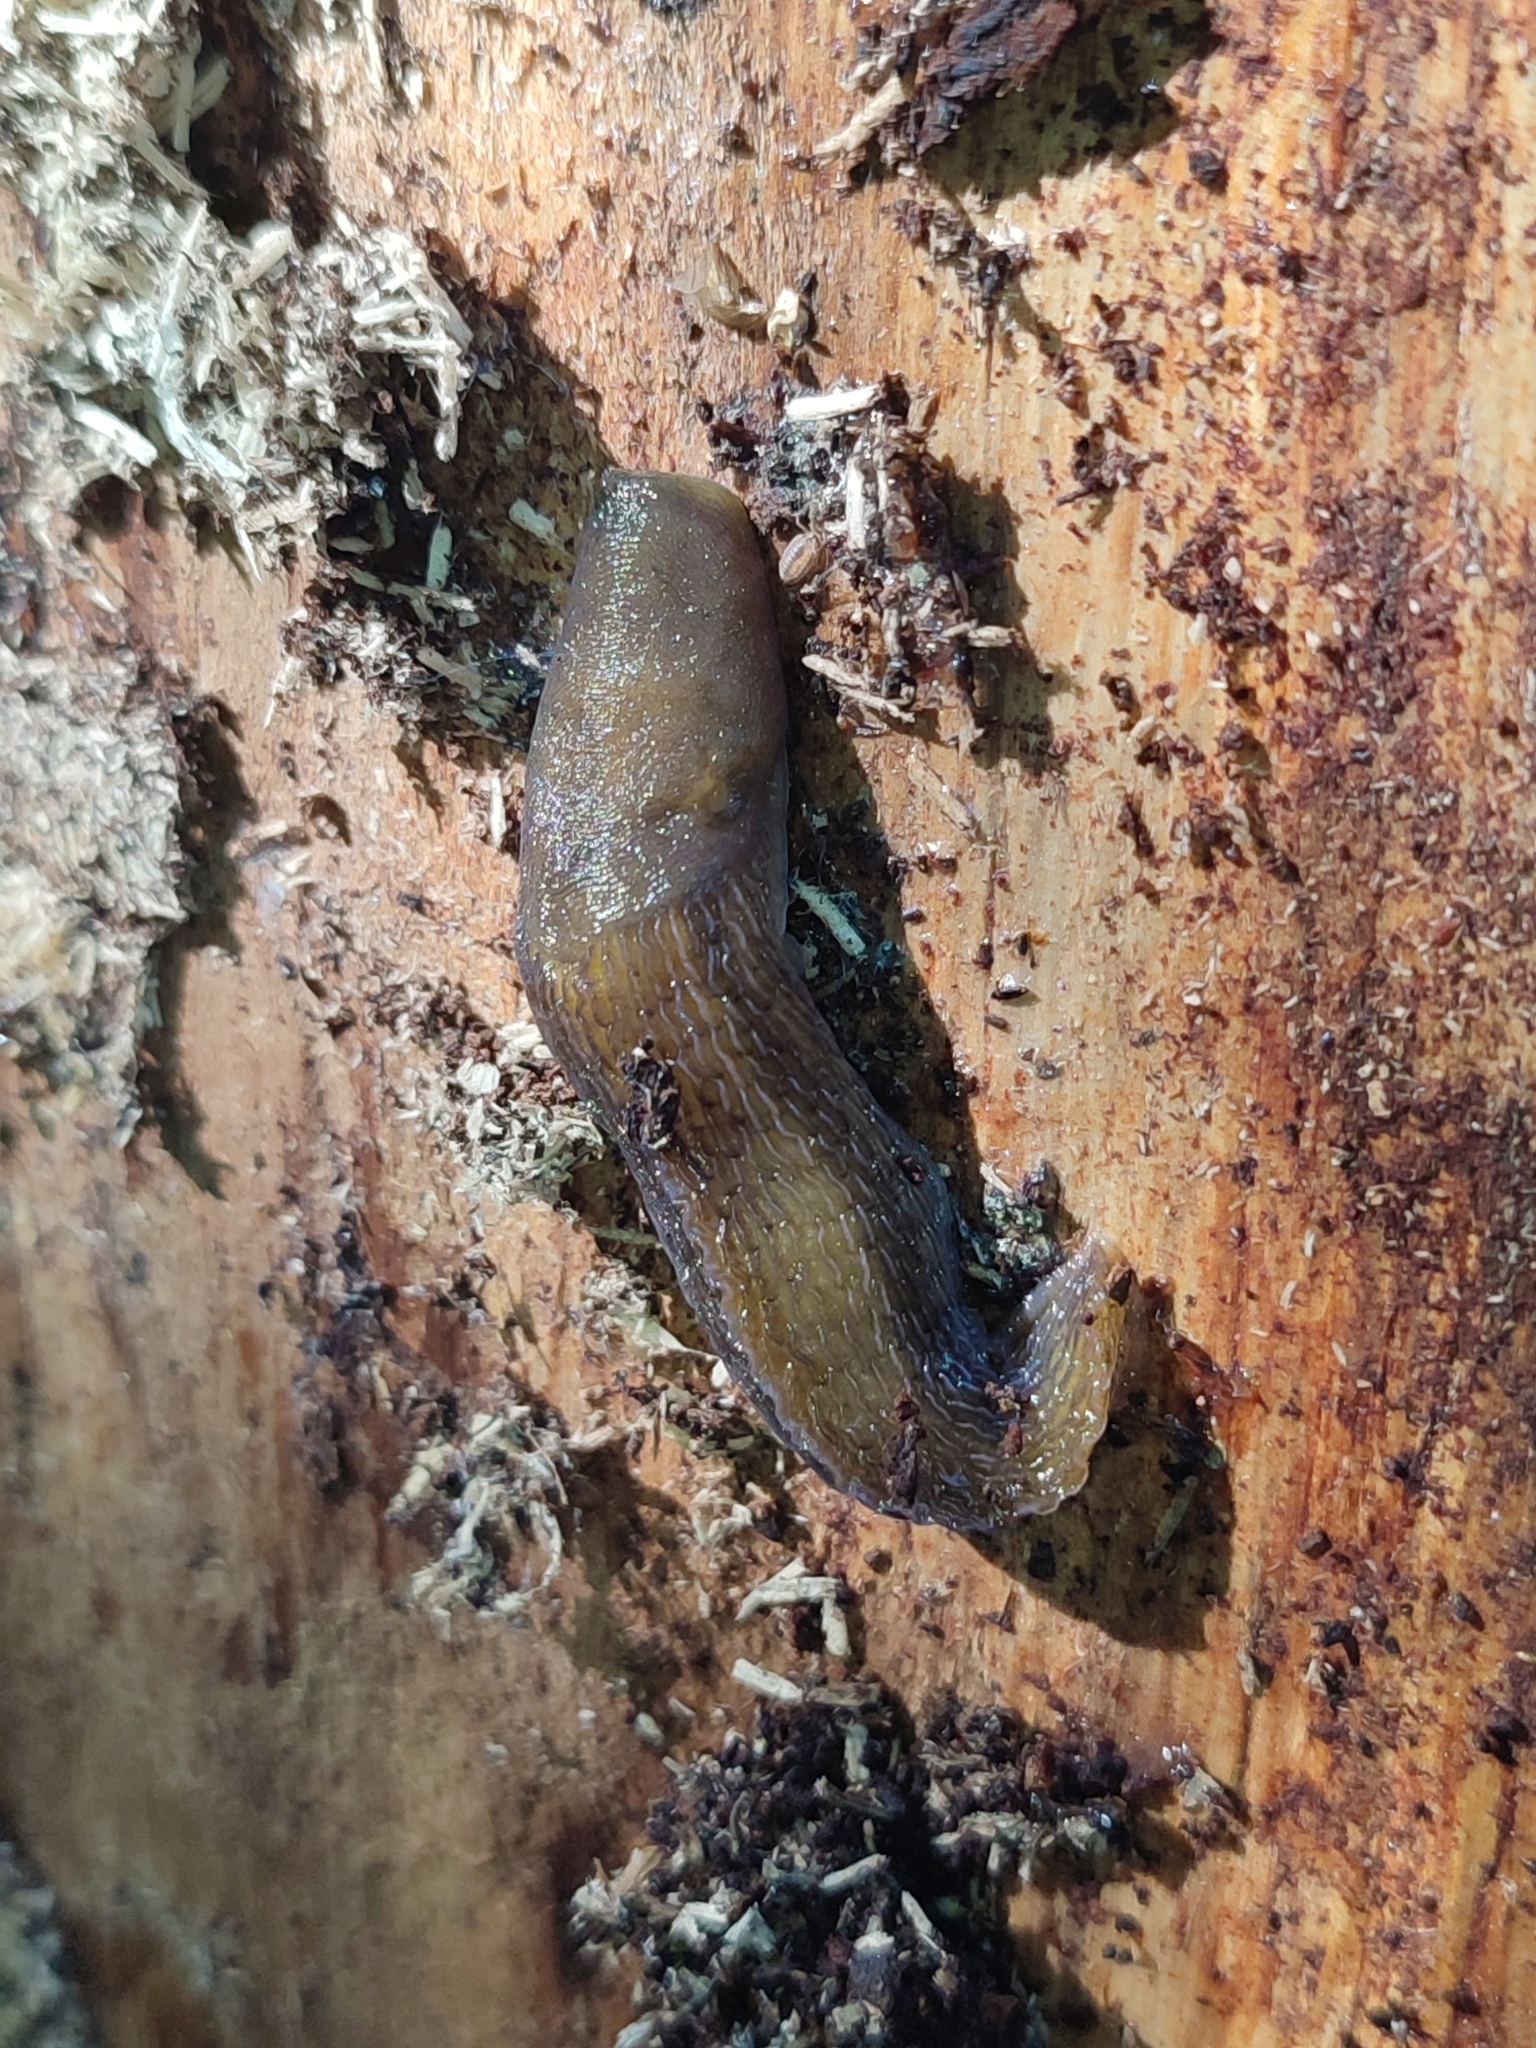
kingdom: Animalia
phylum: Mollusca
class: Gastropoda
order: Stylommatophora
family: Limacidae
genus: Bielzia
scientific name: Bielzia coerulans
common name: Carpathian blue slug
